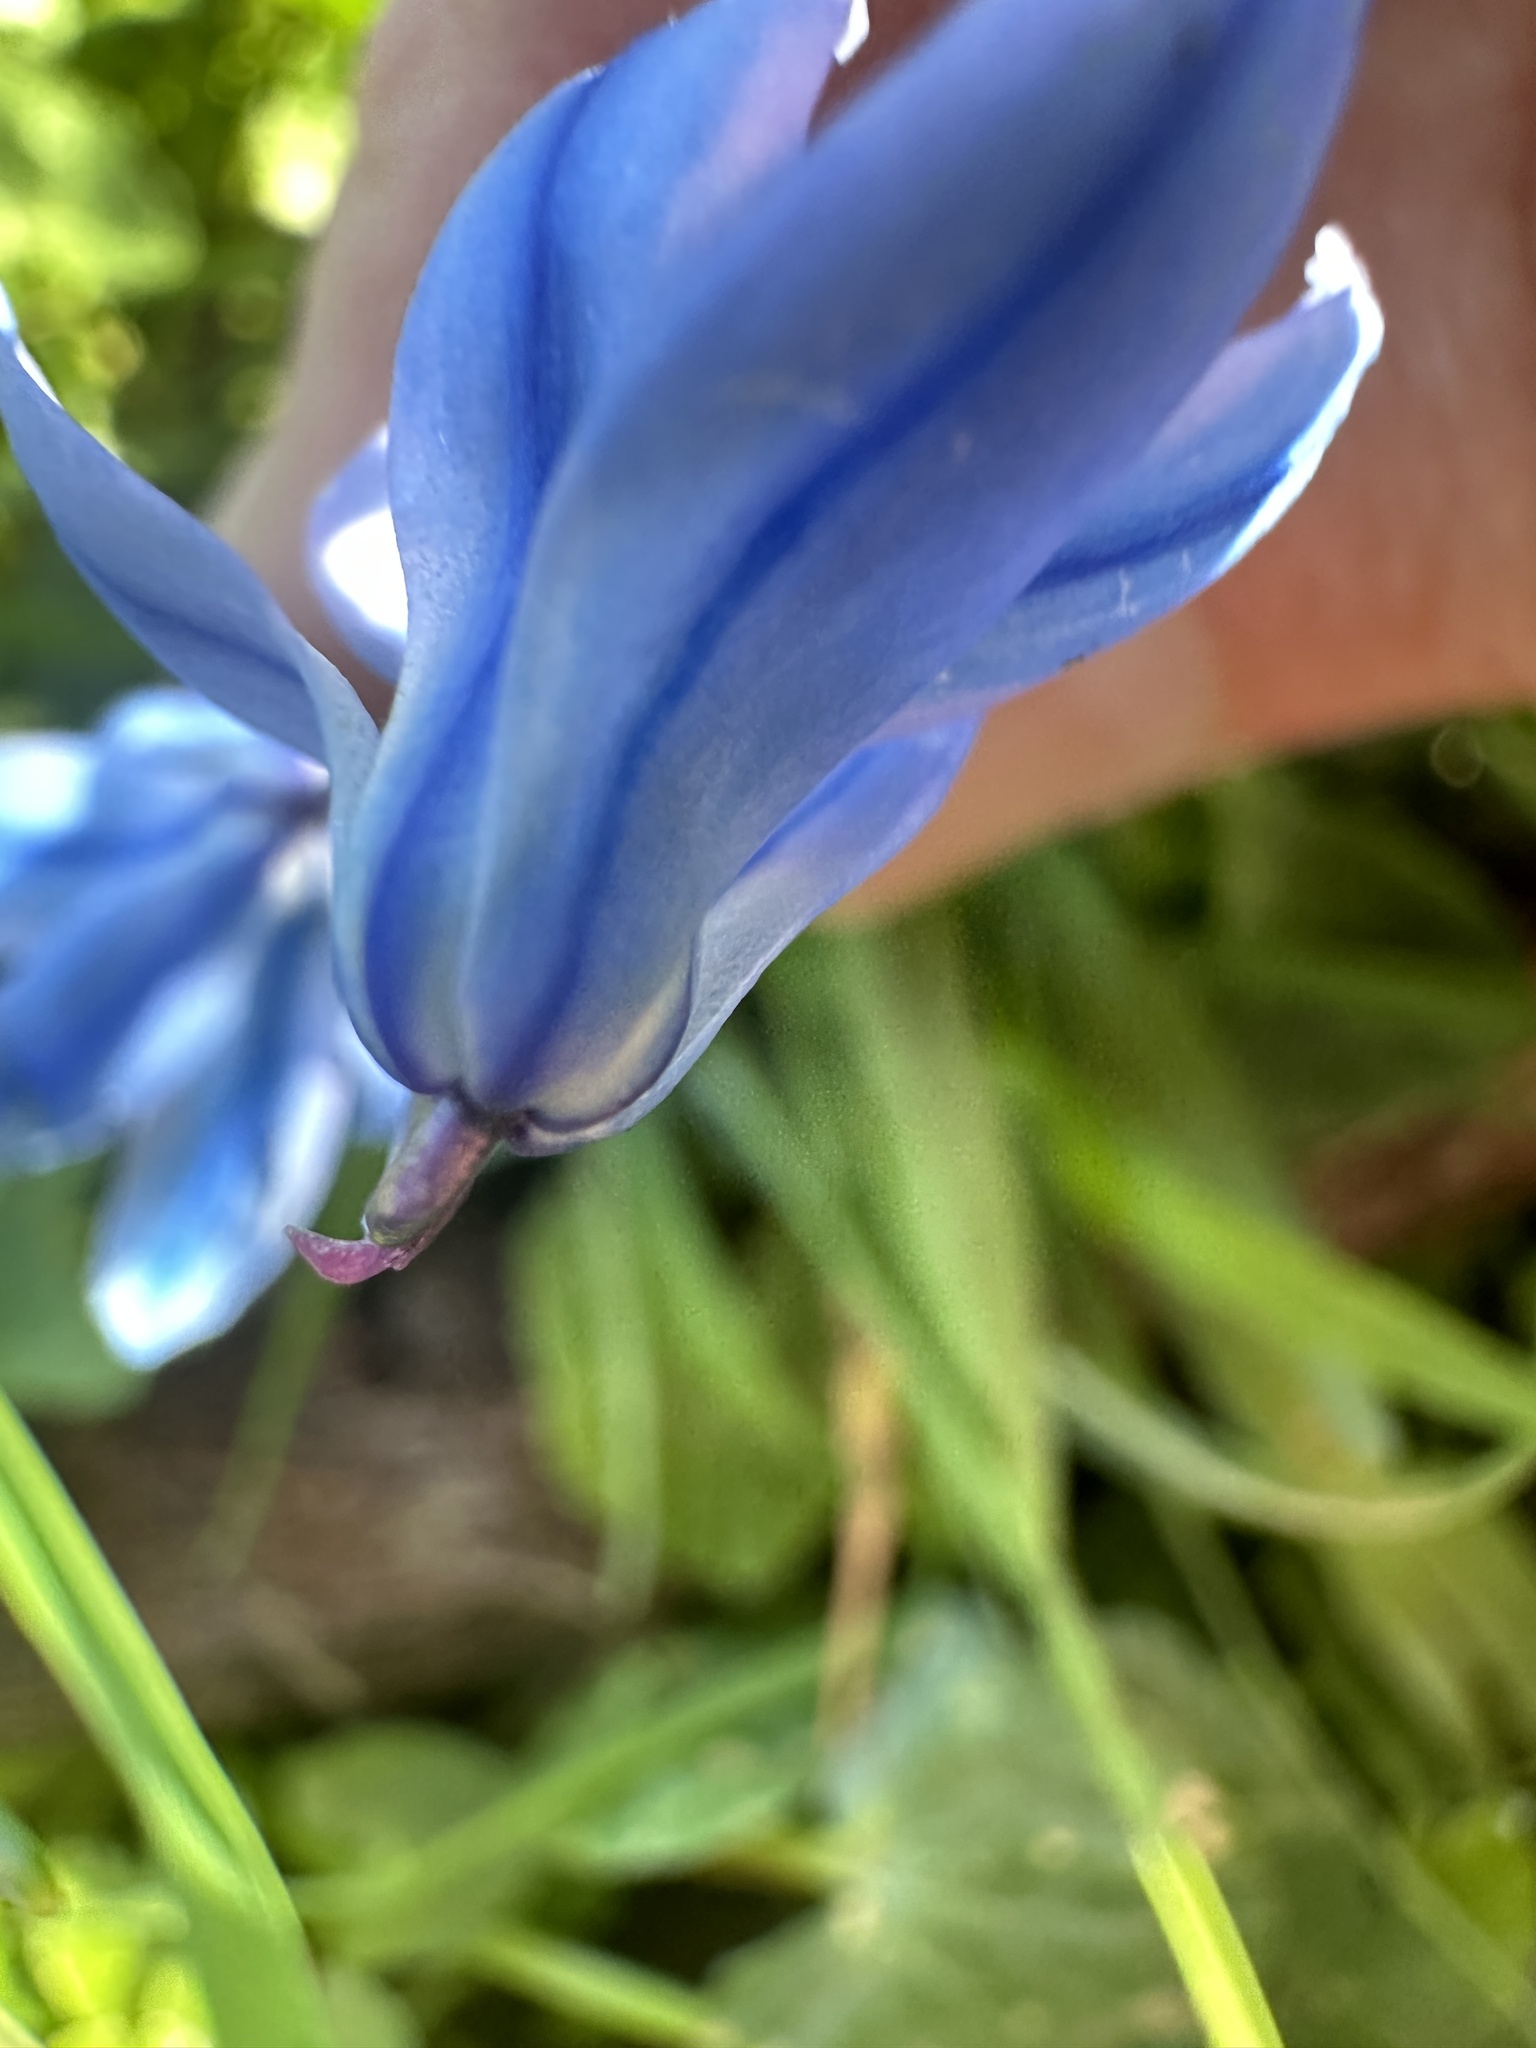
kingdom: Plantae
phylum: Tracheophyta
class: Liliopsida
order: Asparagales
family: Asparagaceae
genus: Scilla
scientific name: Scilla siberica
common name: Siberian squill
